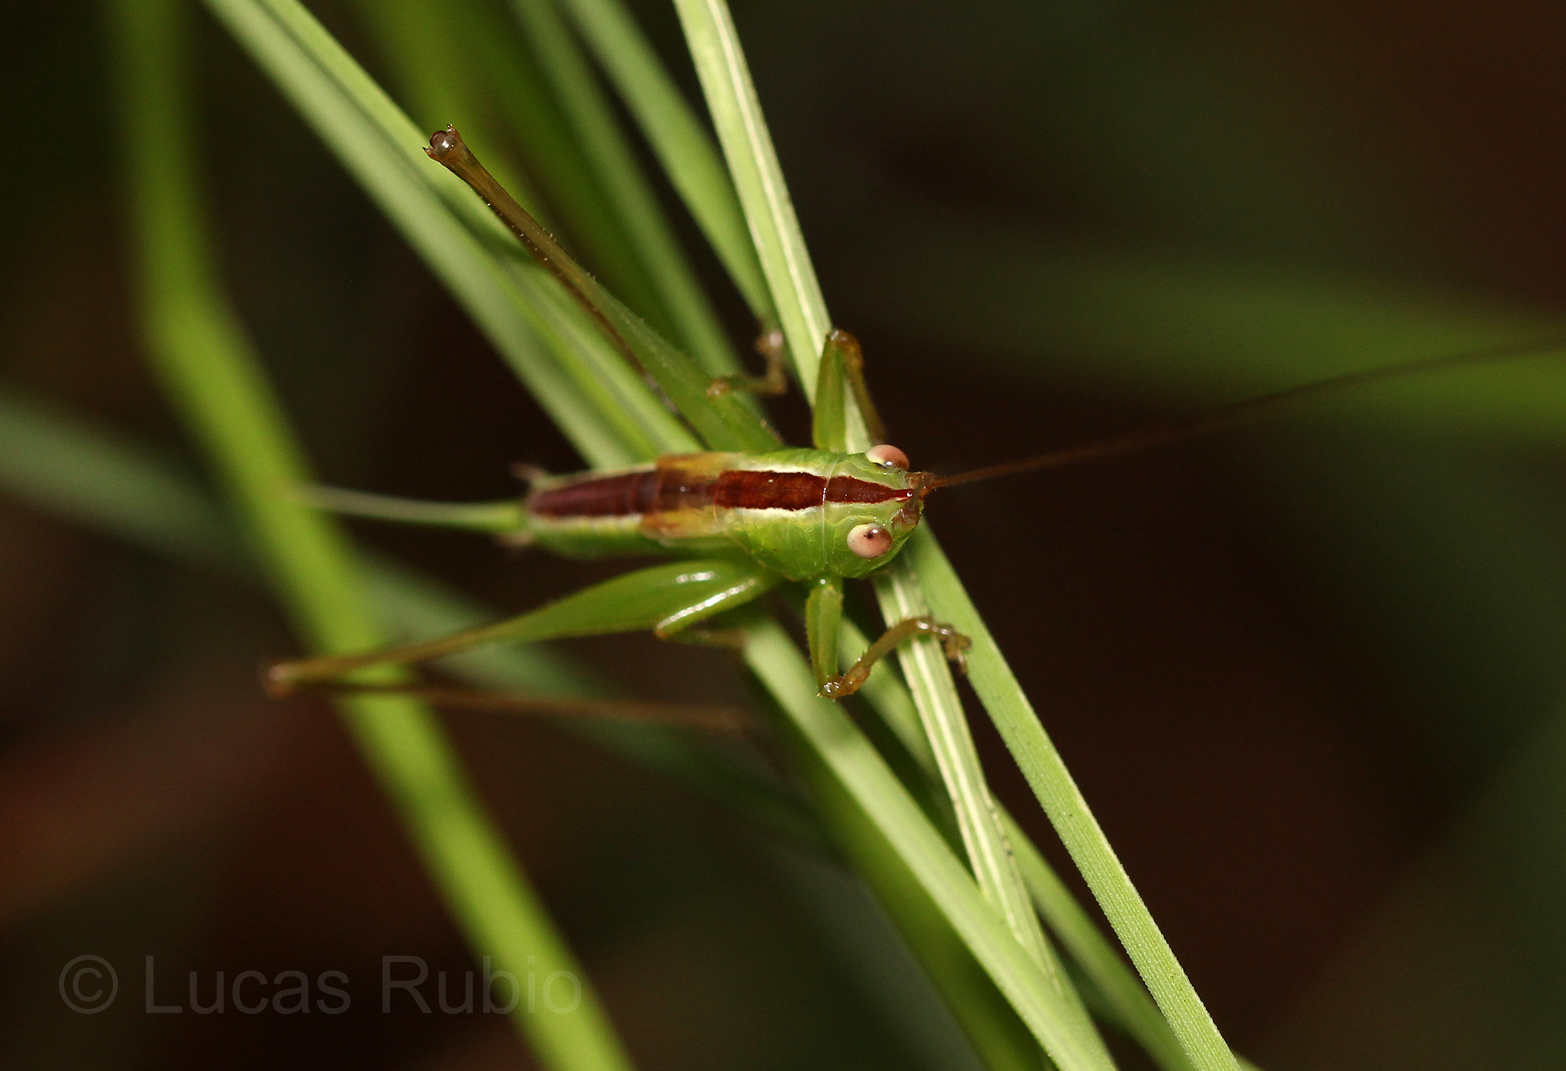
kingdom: Animalia
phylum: Arthropoda
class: Insecta
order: Orthoptera
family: Tettigoniidae
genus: Conocephalus
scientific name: Conocephalus
